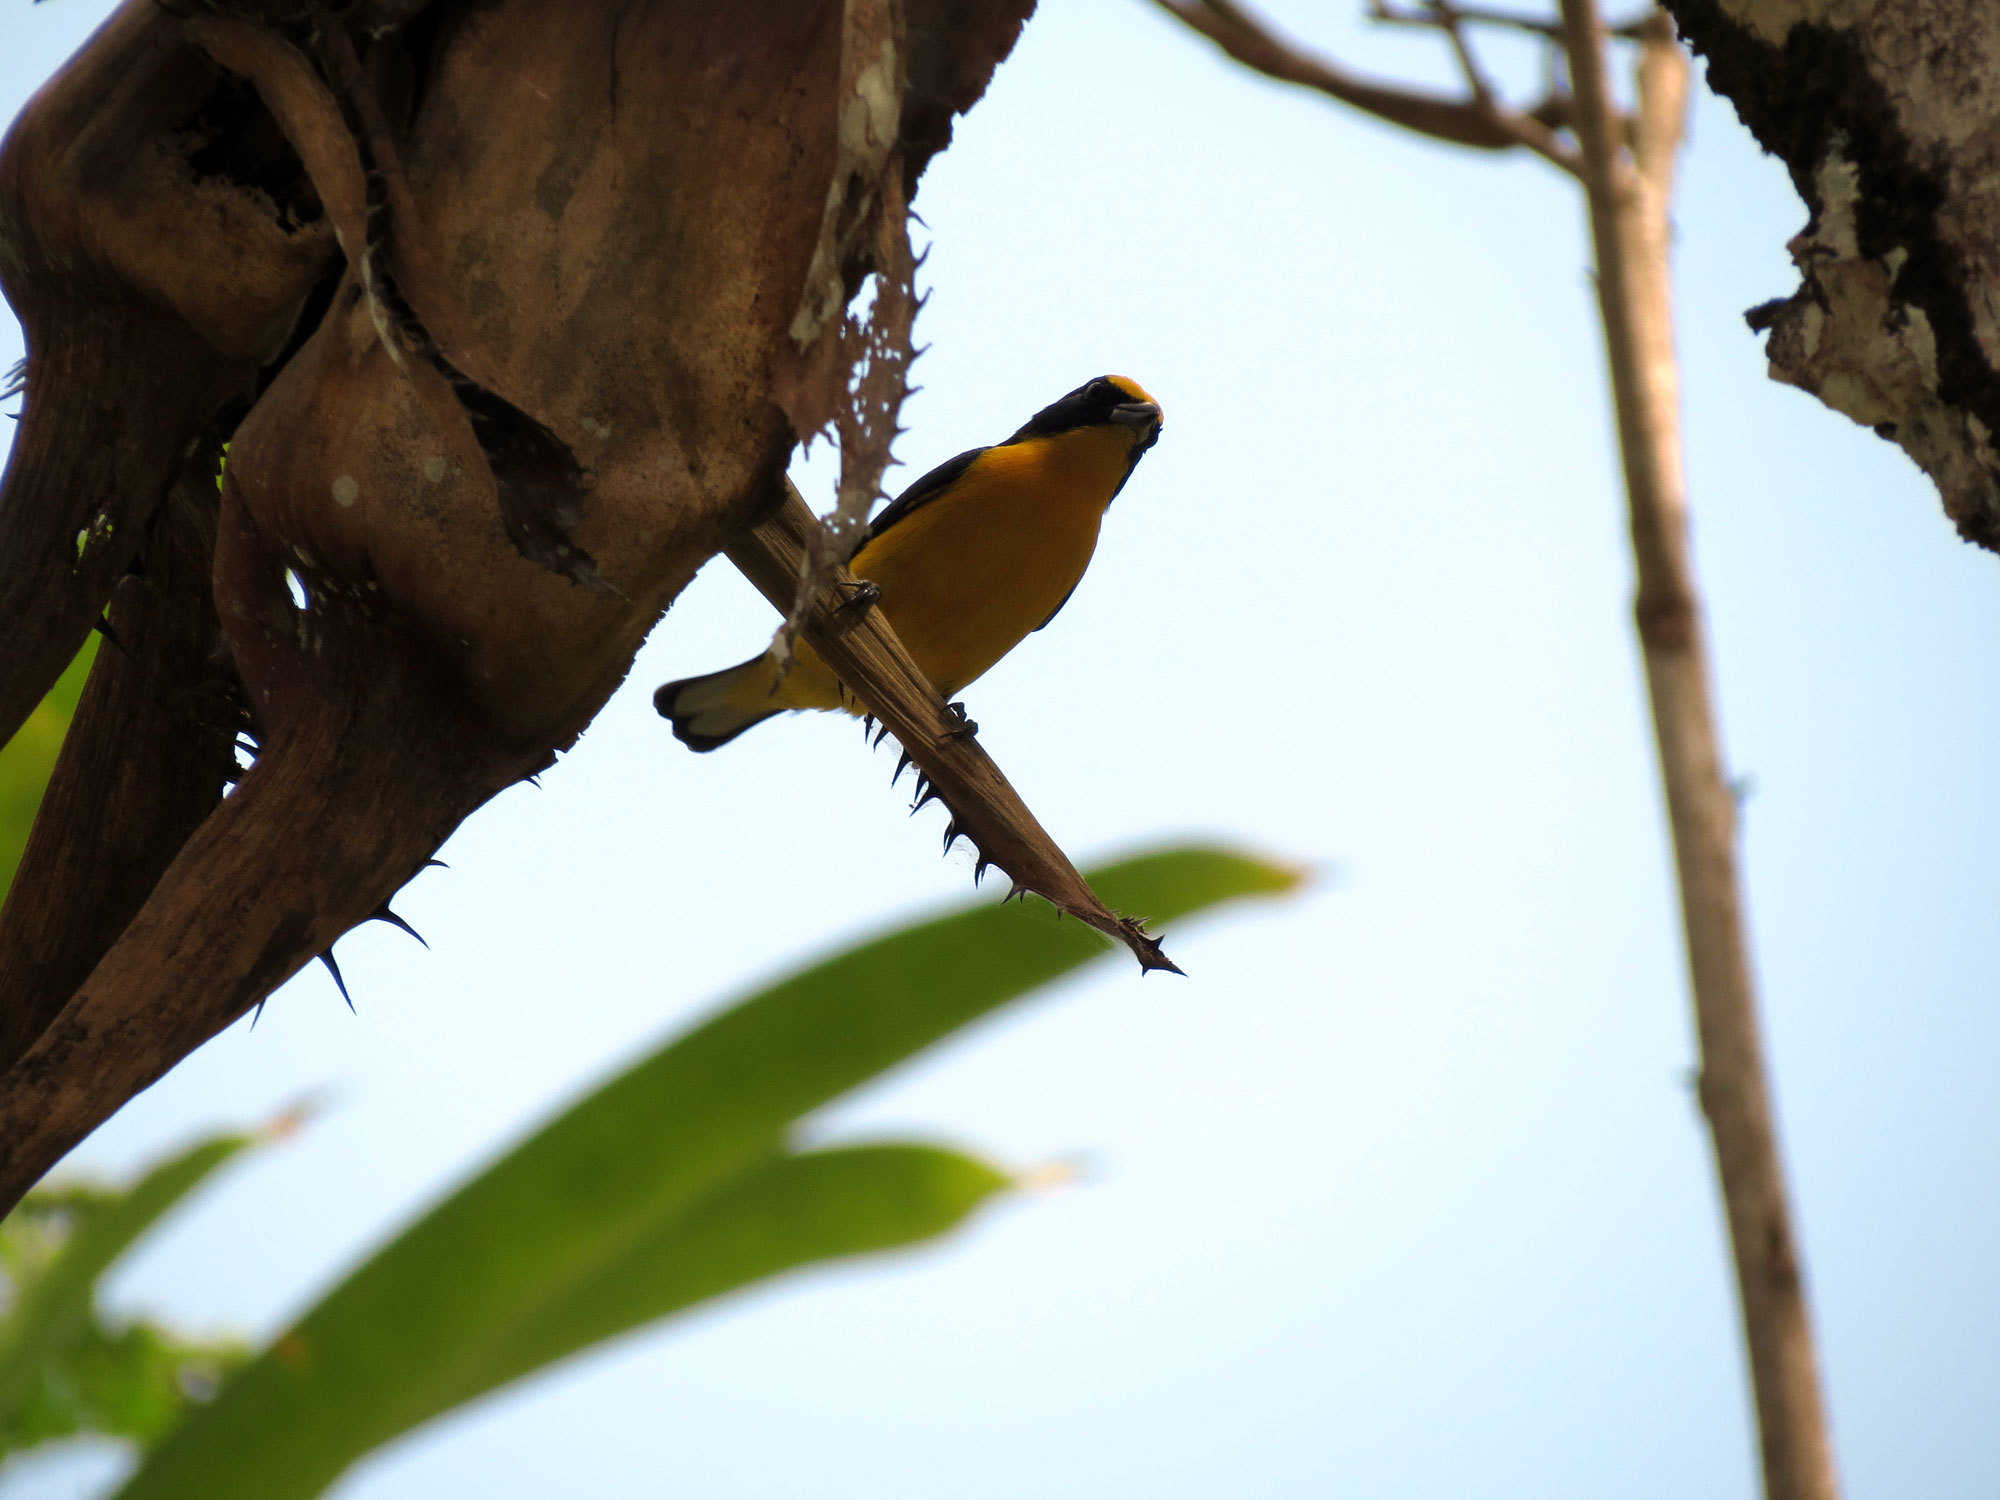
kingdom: Animalia
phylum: Chordata
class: Aves
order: Passeriformes
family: Fringillidae
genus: Euphonia
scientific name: Euphonia laniirostris
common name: Thick-billed euphonia
